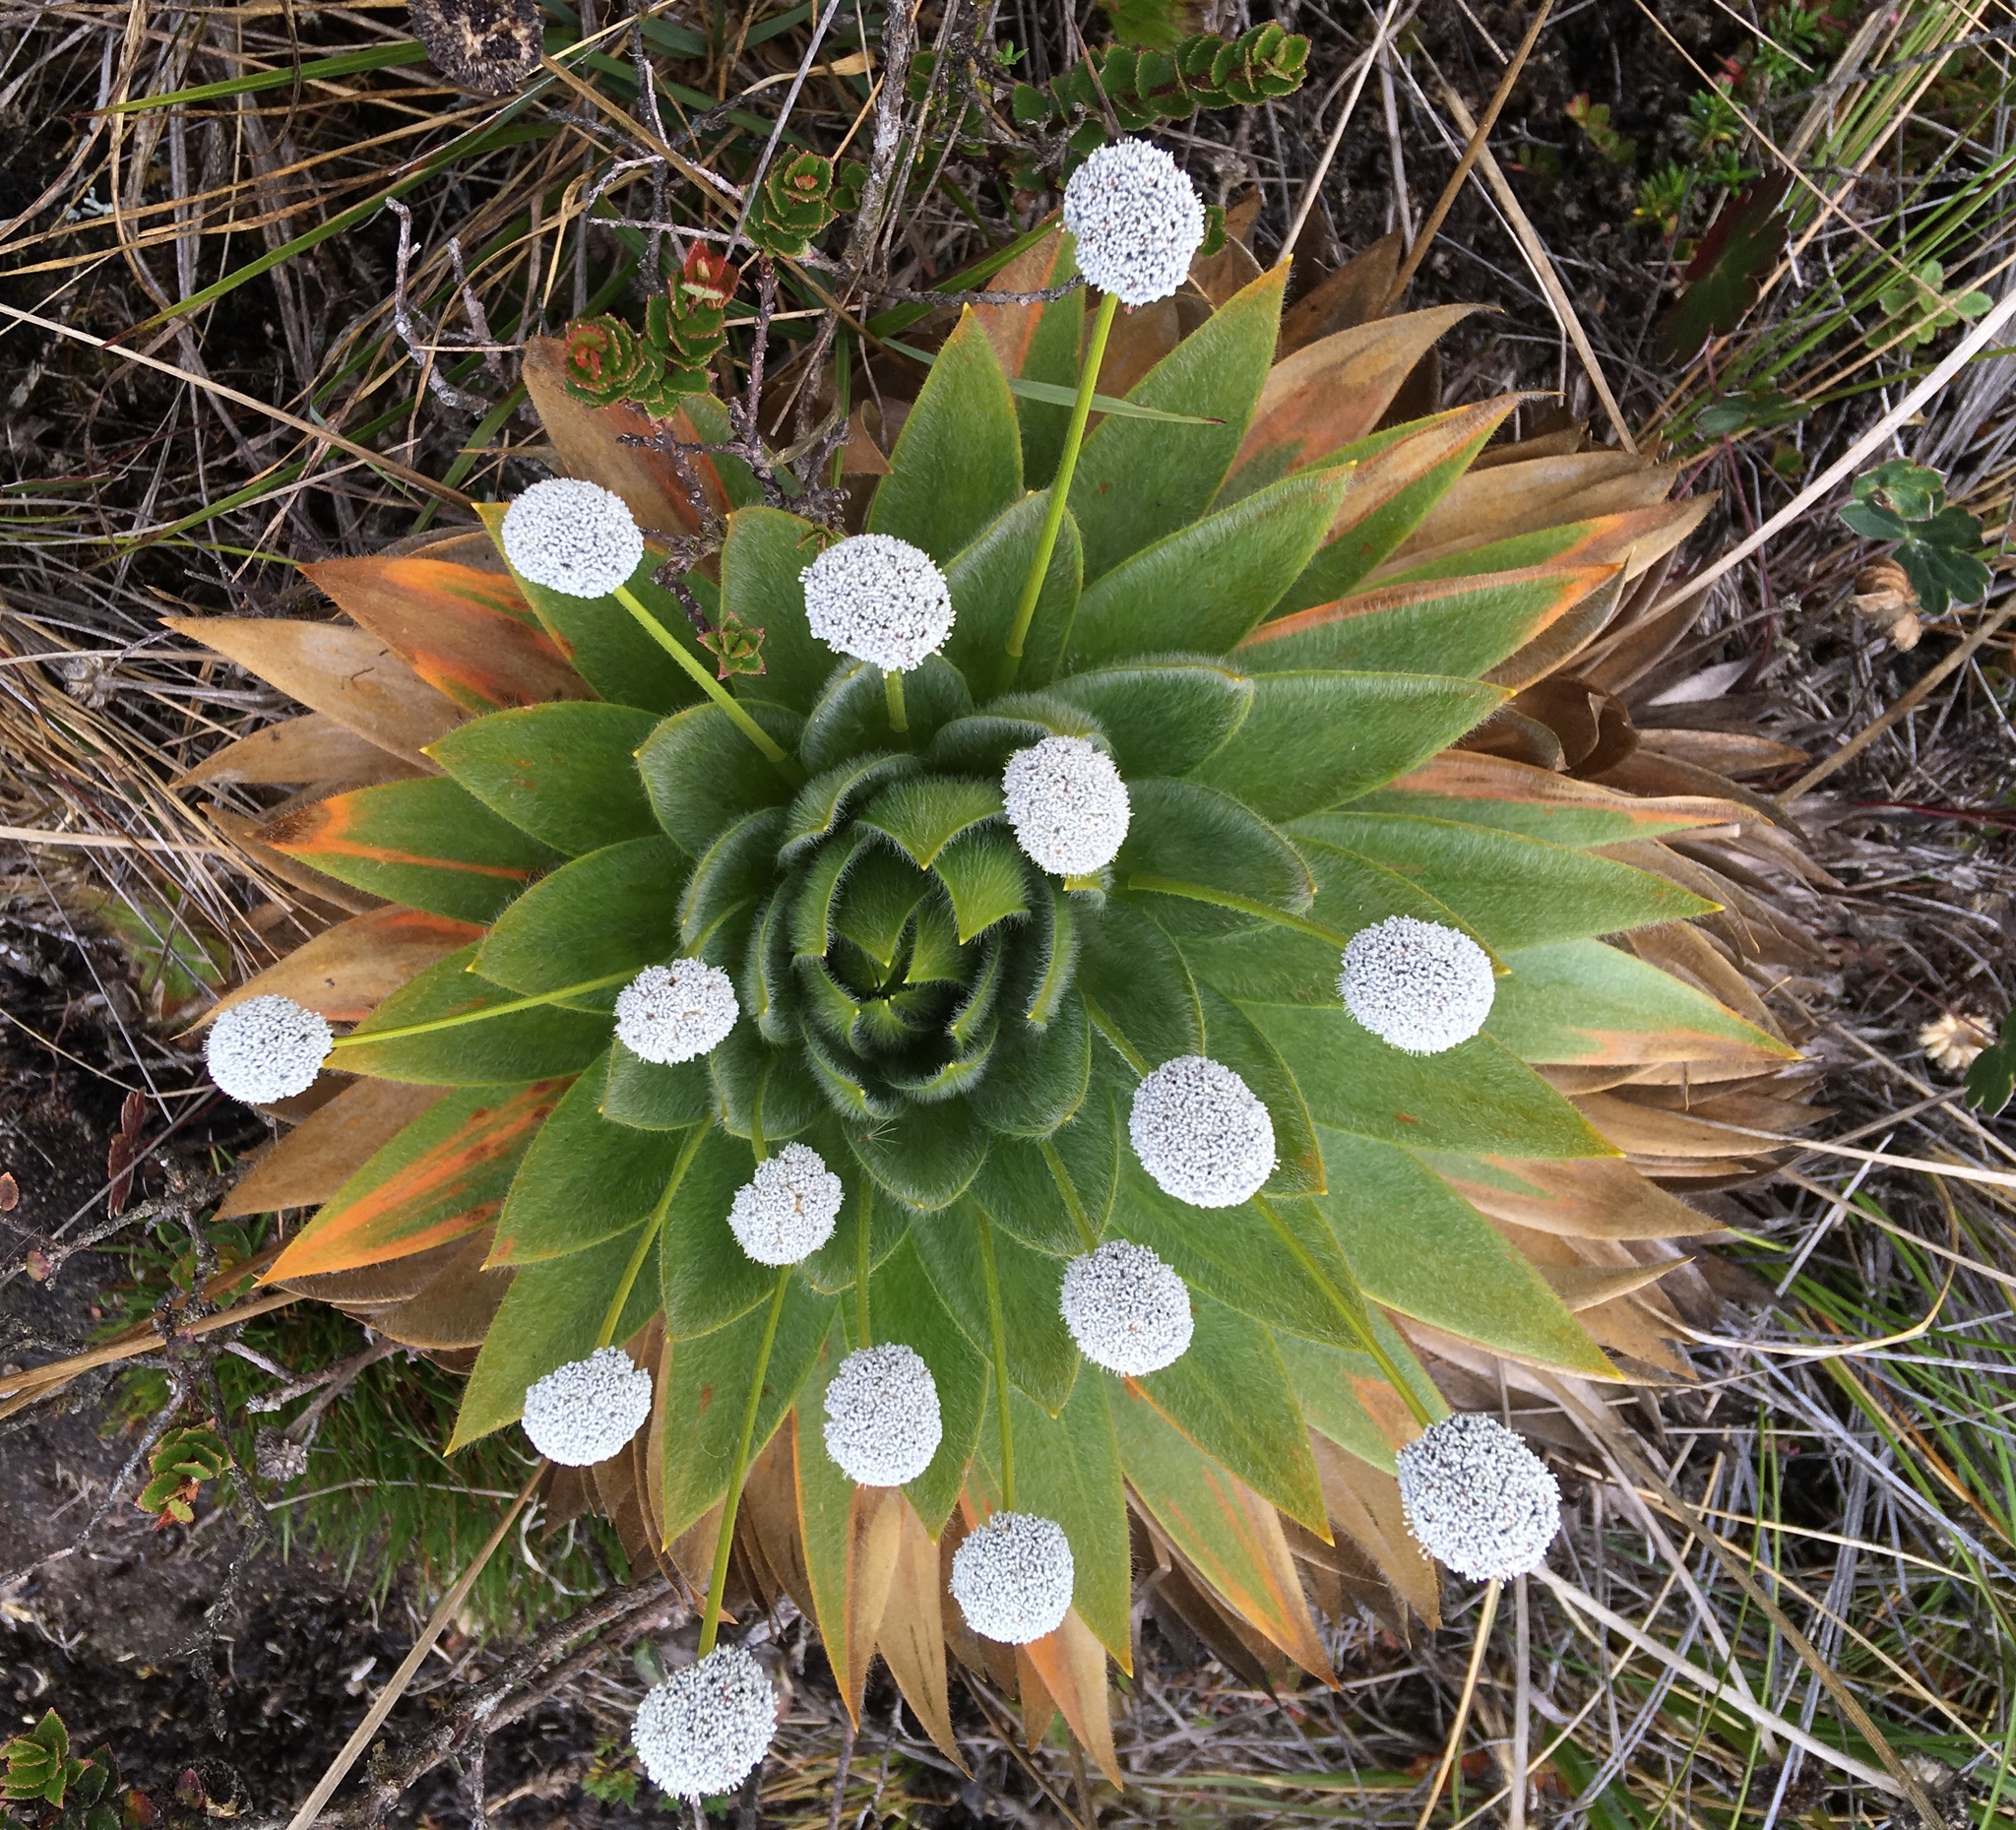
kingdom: Plantae
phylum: Tracheophyta
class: Liliopsida
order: Poales
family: Eriocaulaceae
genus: Paepalanthus
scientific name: Paepalanthus alpinus
